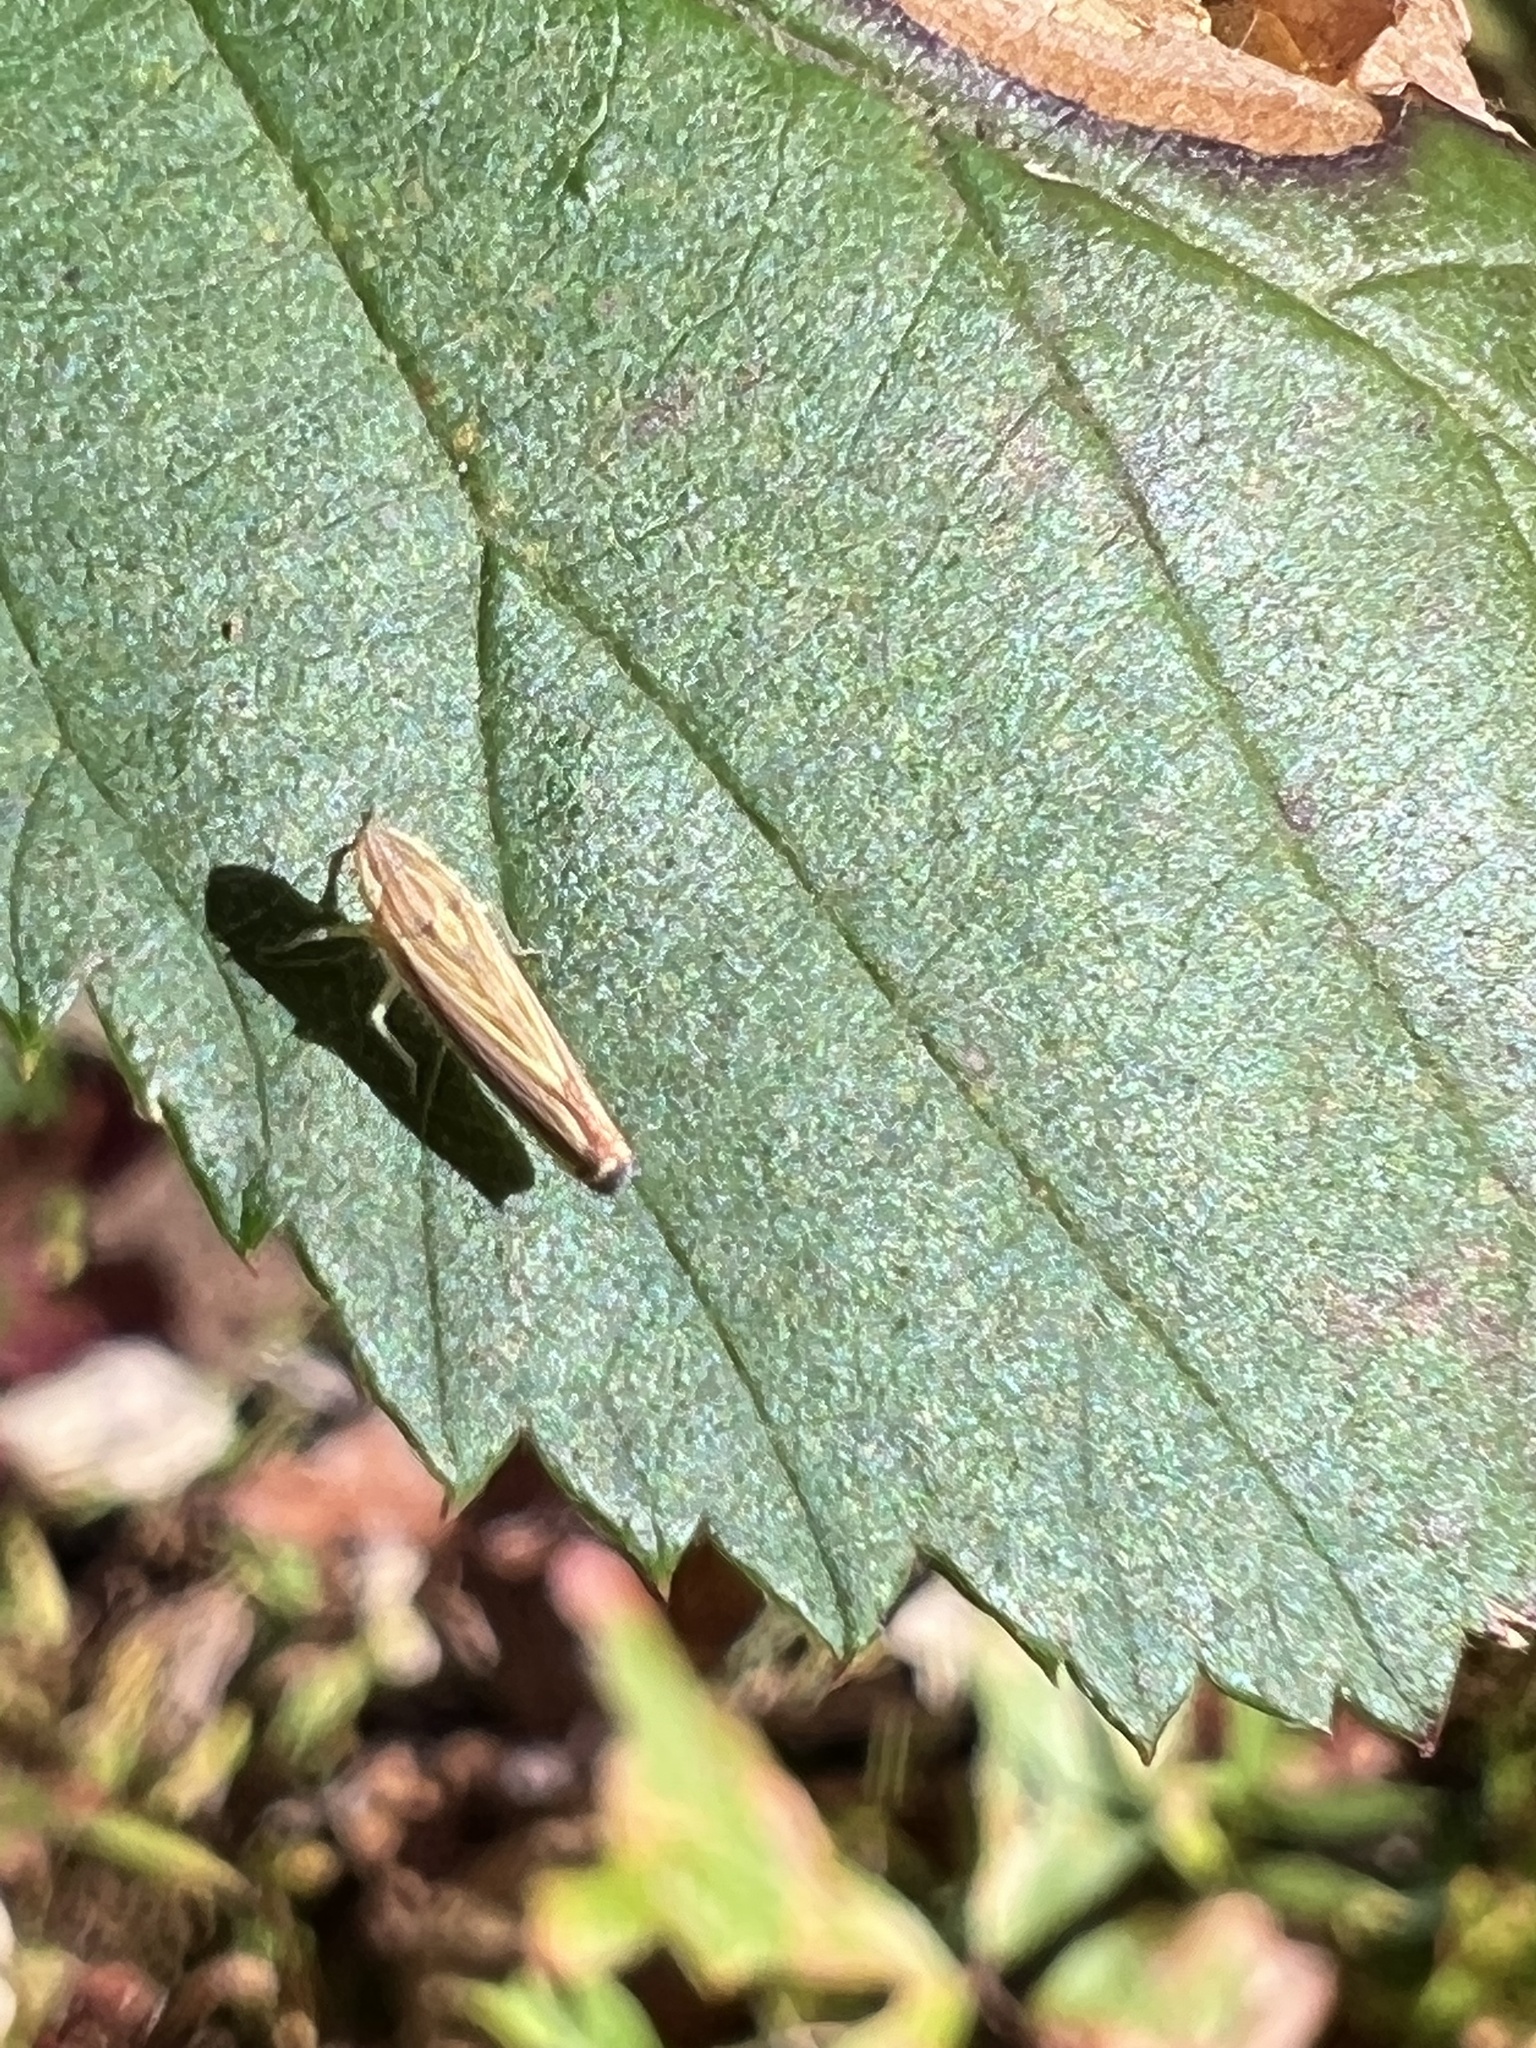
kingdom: Animalia
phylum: Arthropoda
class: Insecta
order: Hemiptera
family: Cicadellidae
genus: Sibovia
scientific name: Sibovia occatoria
